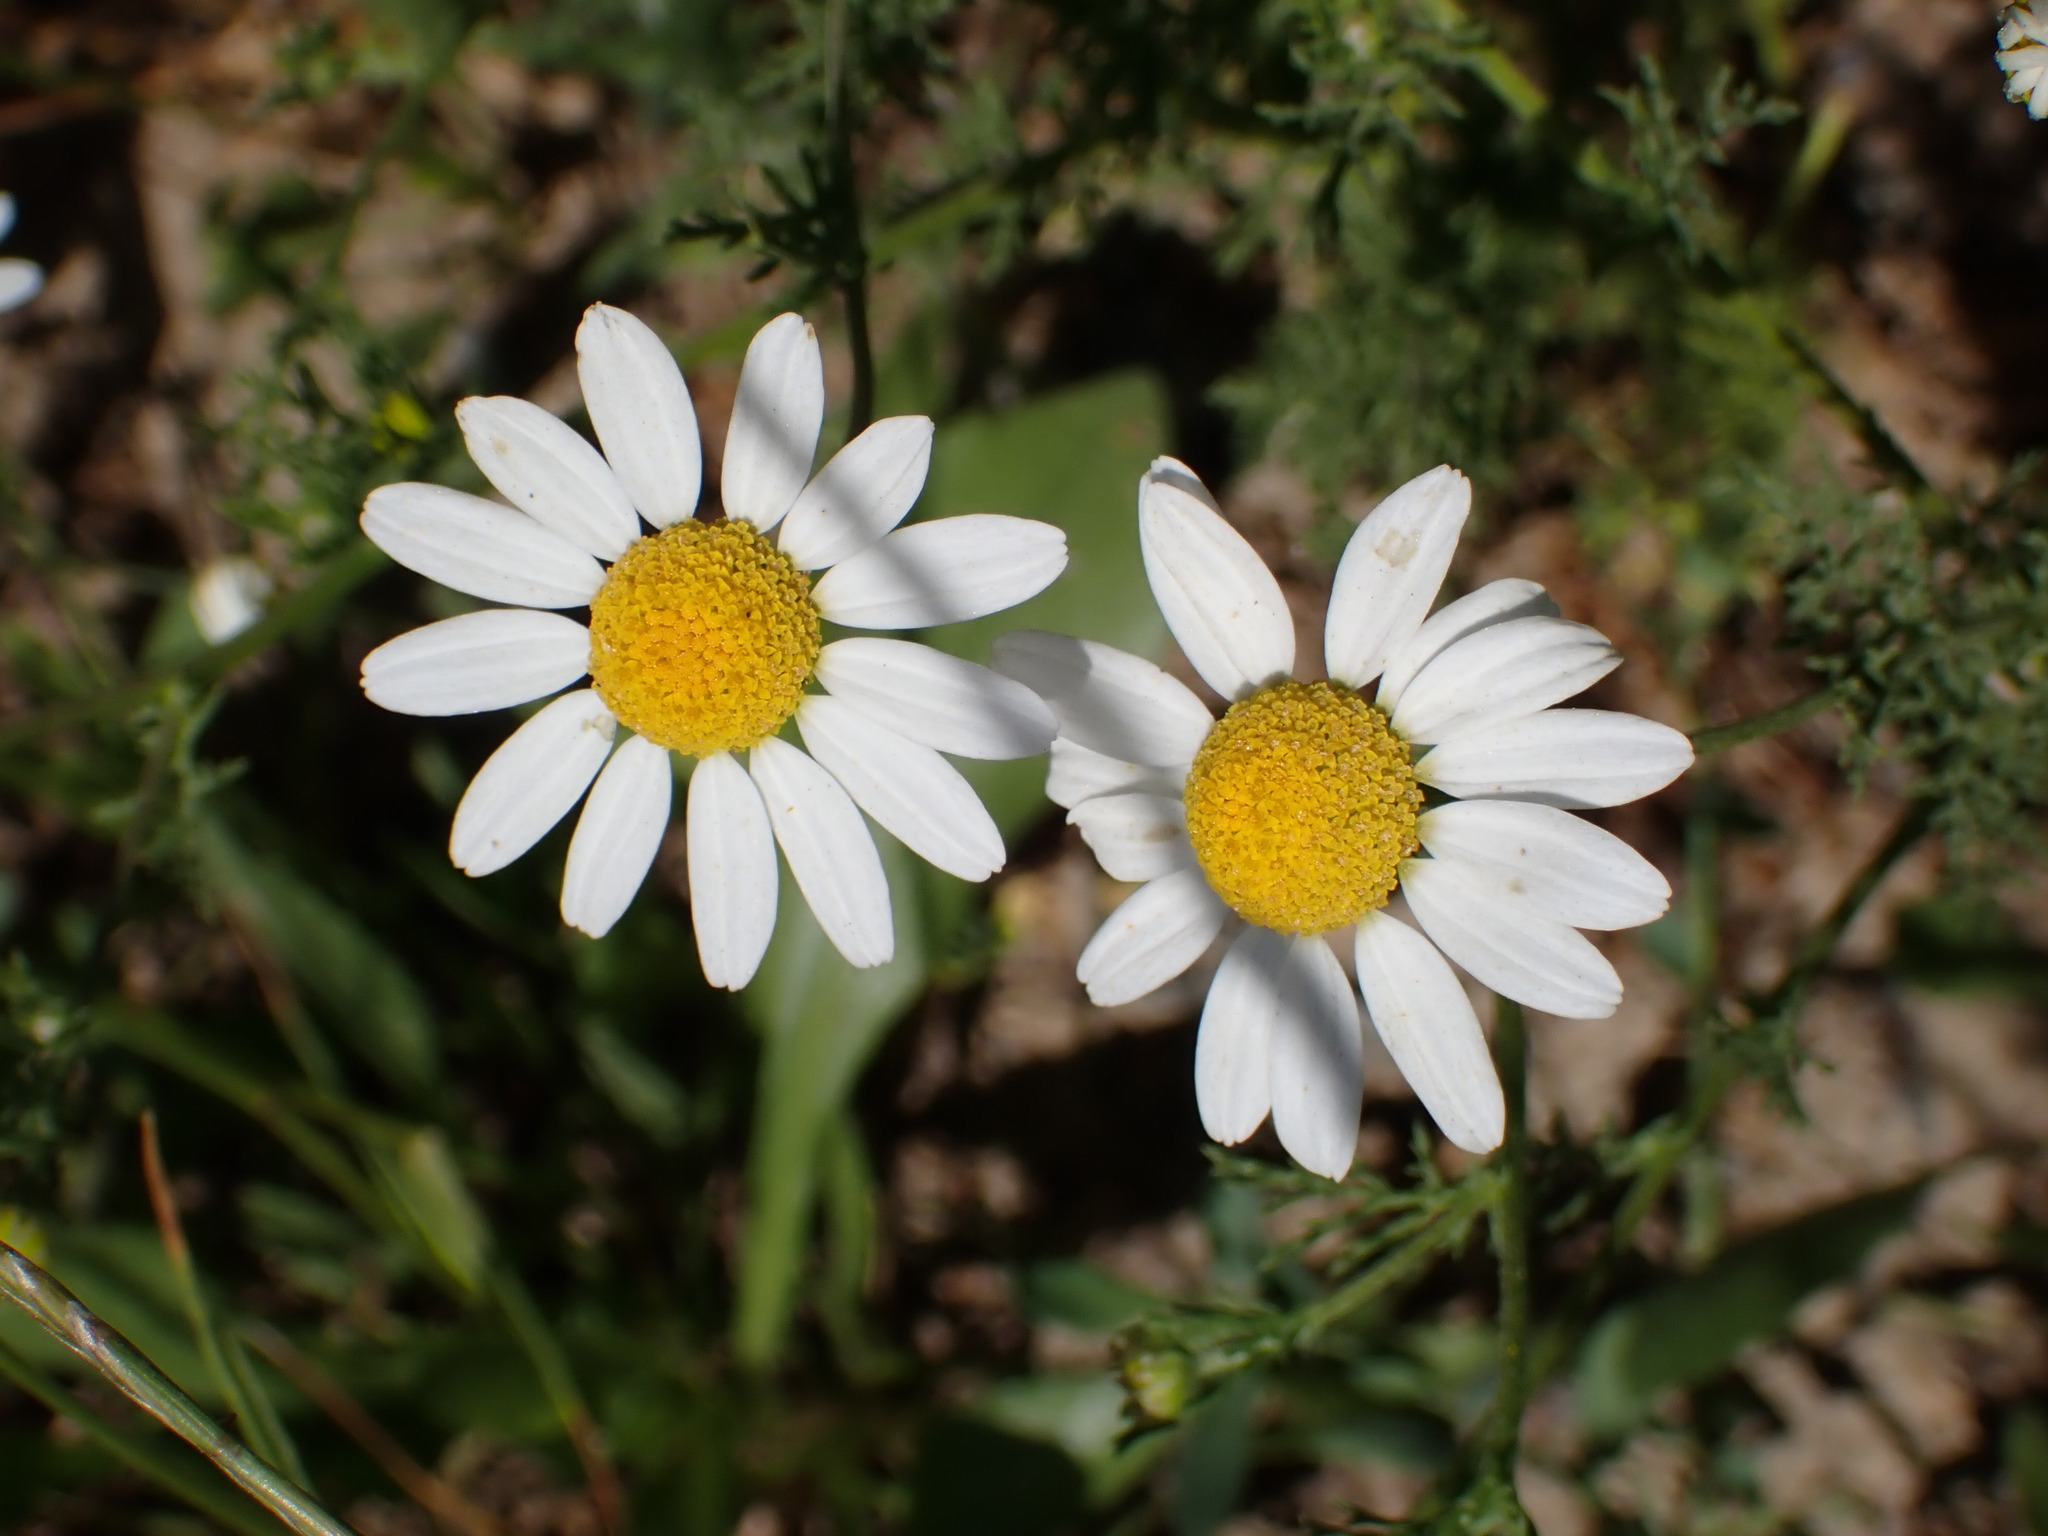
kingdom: Plantae
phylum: Tracheophyta
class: Magnoliopsida
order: Asterales
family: Asteraceae
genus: Anthemis
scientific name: Anthemis cotula
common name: Stinking chamomile
